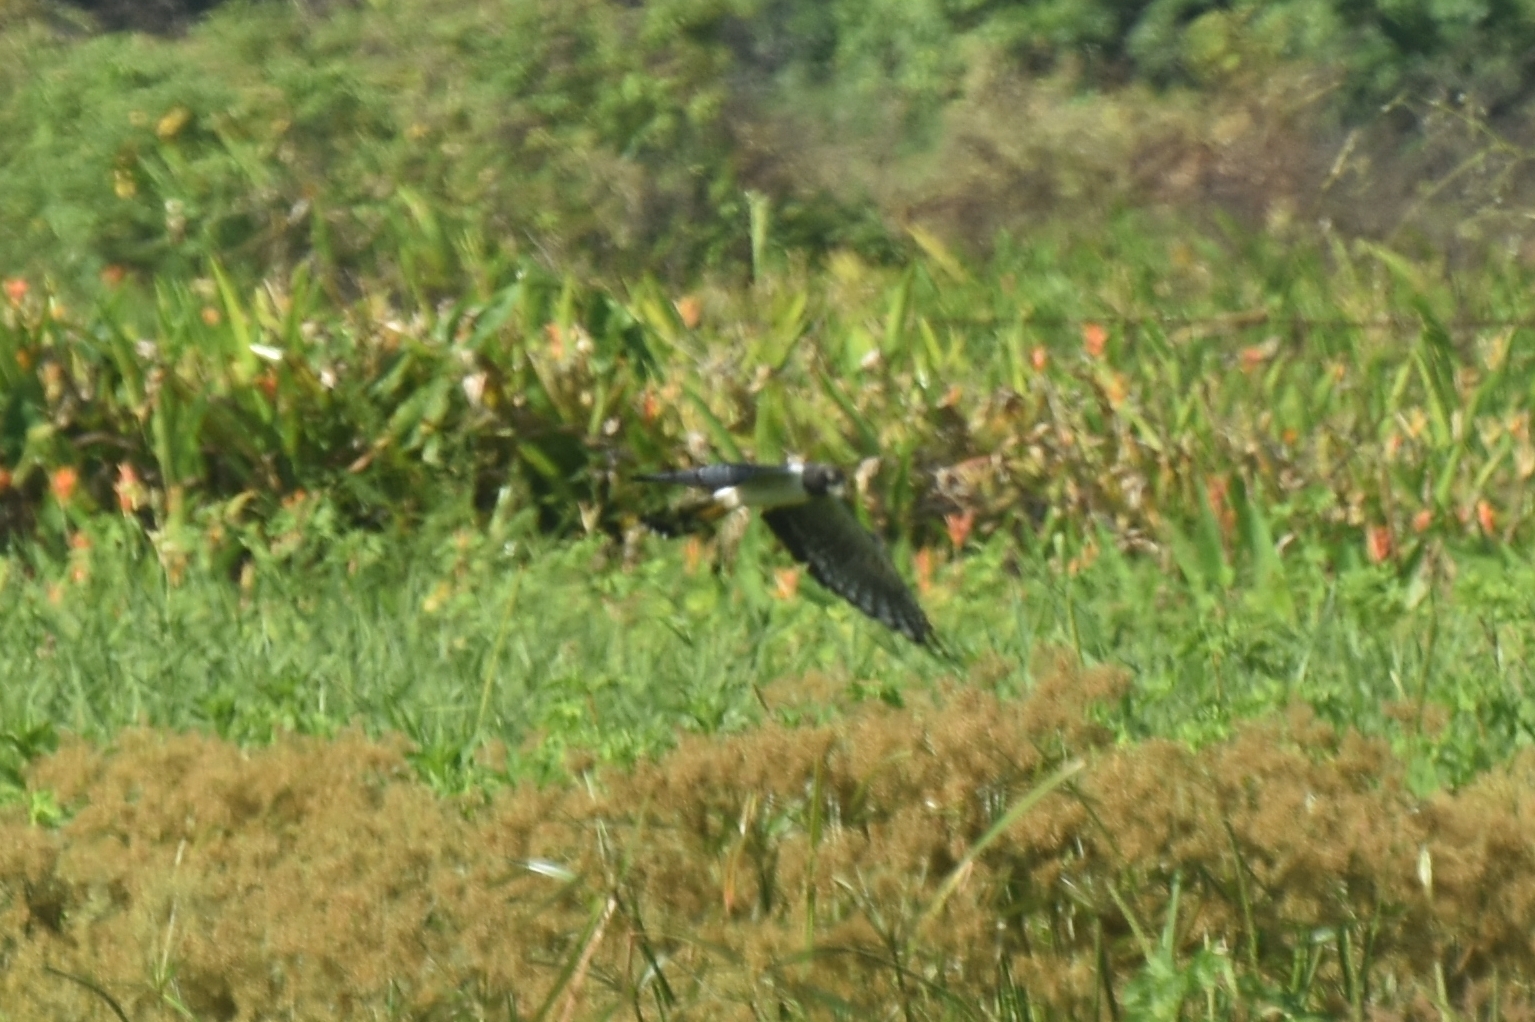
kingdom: Animalia
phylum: Chordata
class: Aves
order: Accipitriformes
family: Accipitridae
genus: Circus
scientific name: Circus buffoni
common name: Long-winged harrier
